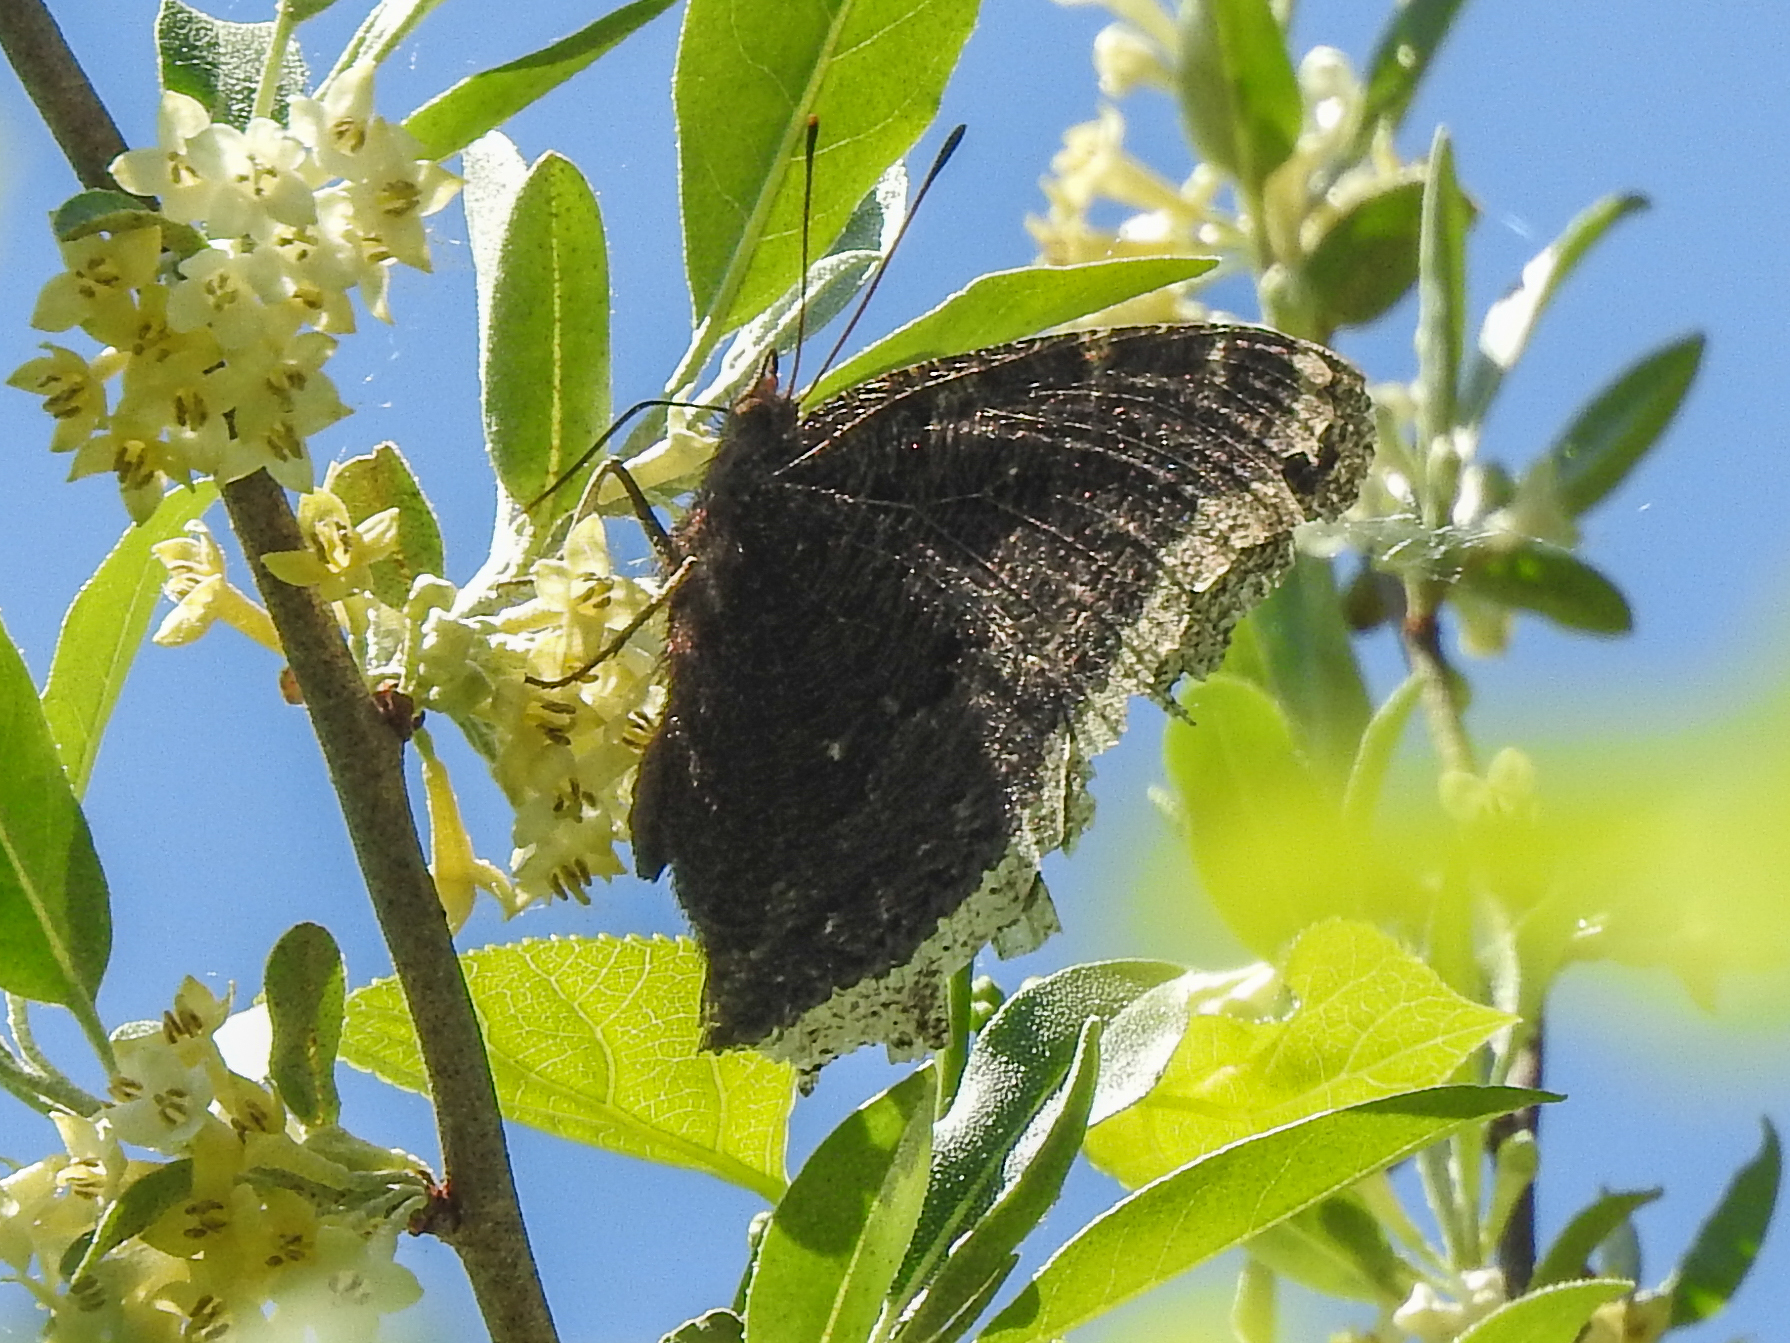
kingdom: Animalia
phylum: Arthropoda
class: Insecta
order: Lepidoptera
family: Nymphalidae
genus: Nymphalis
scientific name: Nymphalis antiopa
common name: Camberwell beauty
